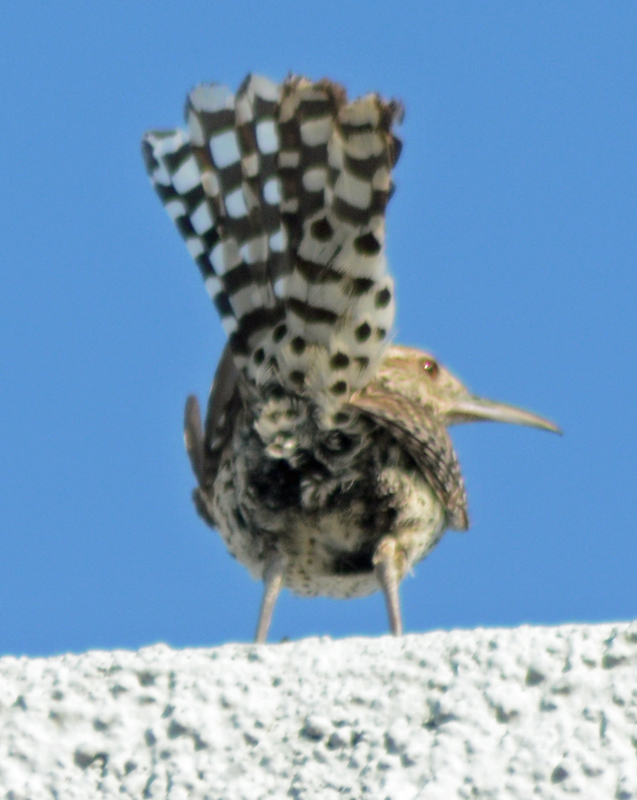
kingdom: Animalia
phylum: Chordata
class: Aves
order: Passeriformes
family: Troglodytidae
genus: Campylorhynchus
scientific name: Campylorhynchus brunneicapillus
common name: Cactus wren
